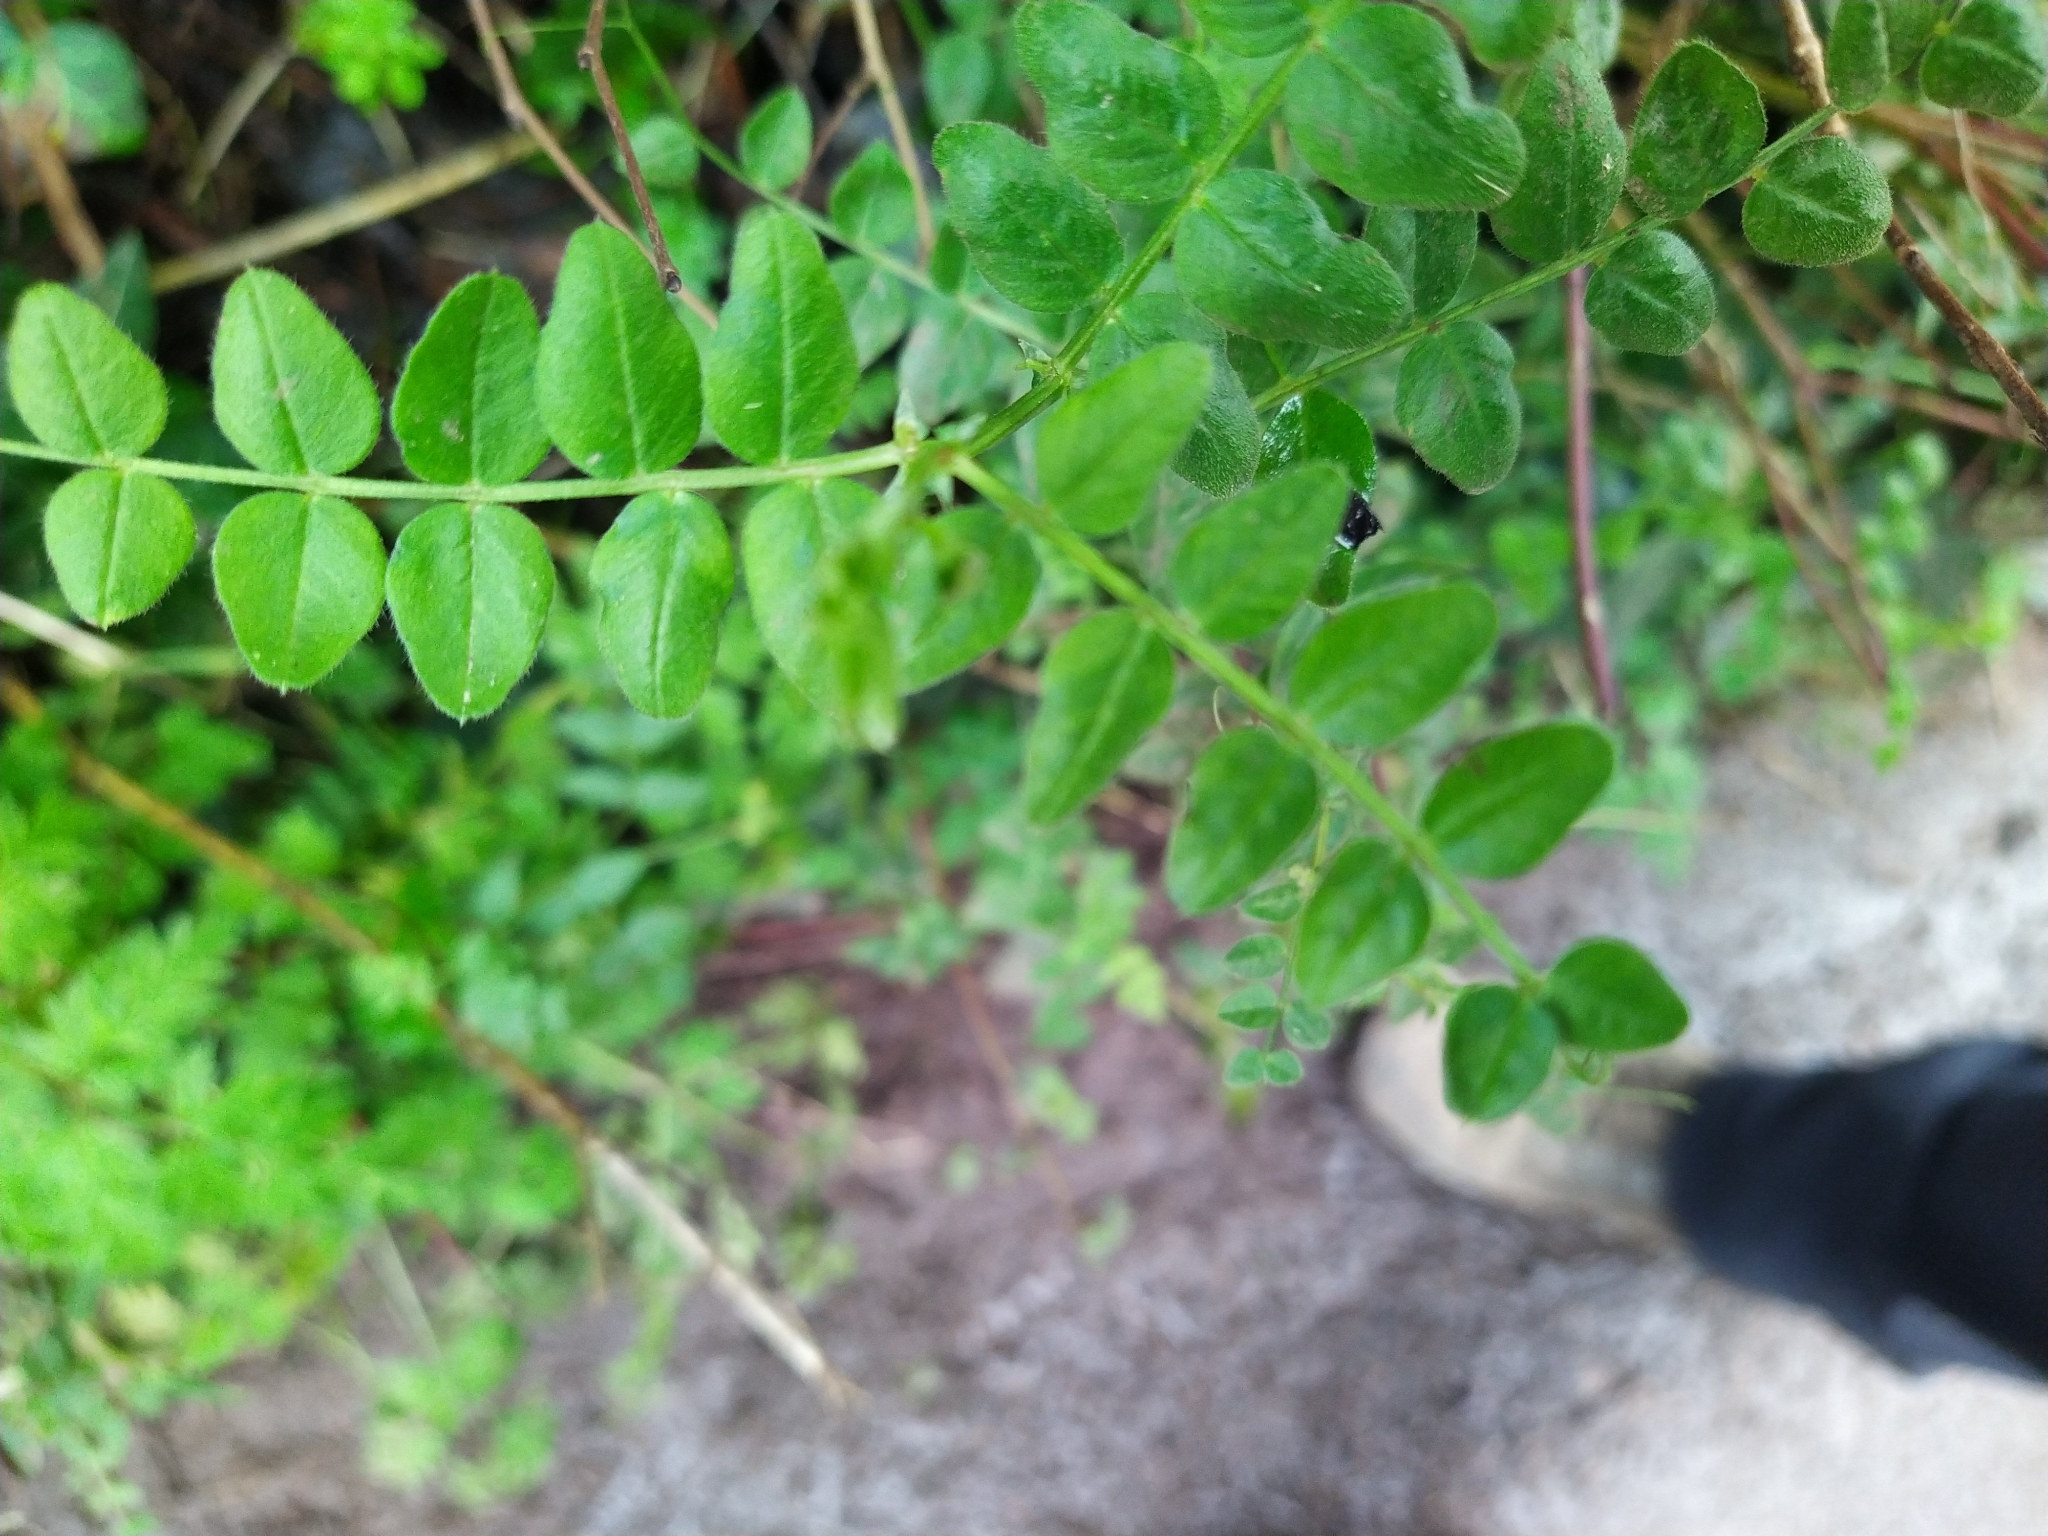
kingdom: Plantae
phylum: Tracheophyta
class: Magnoliopsida
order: Fabales
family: Fabaceae
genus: Vicia
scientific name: Vicia sepium
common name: Bush vetch
